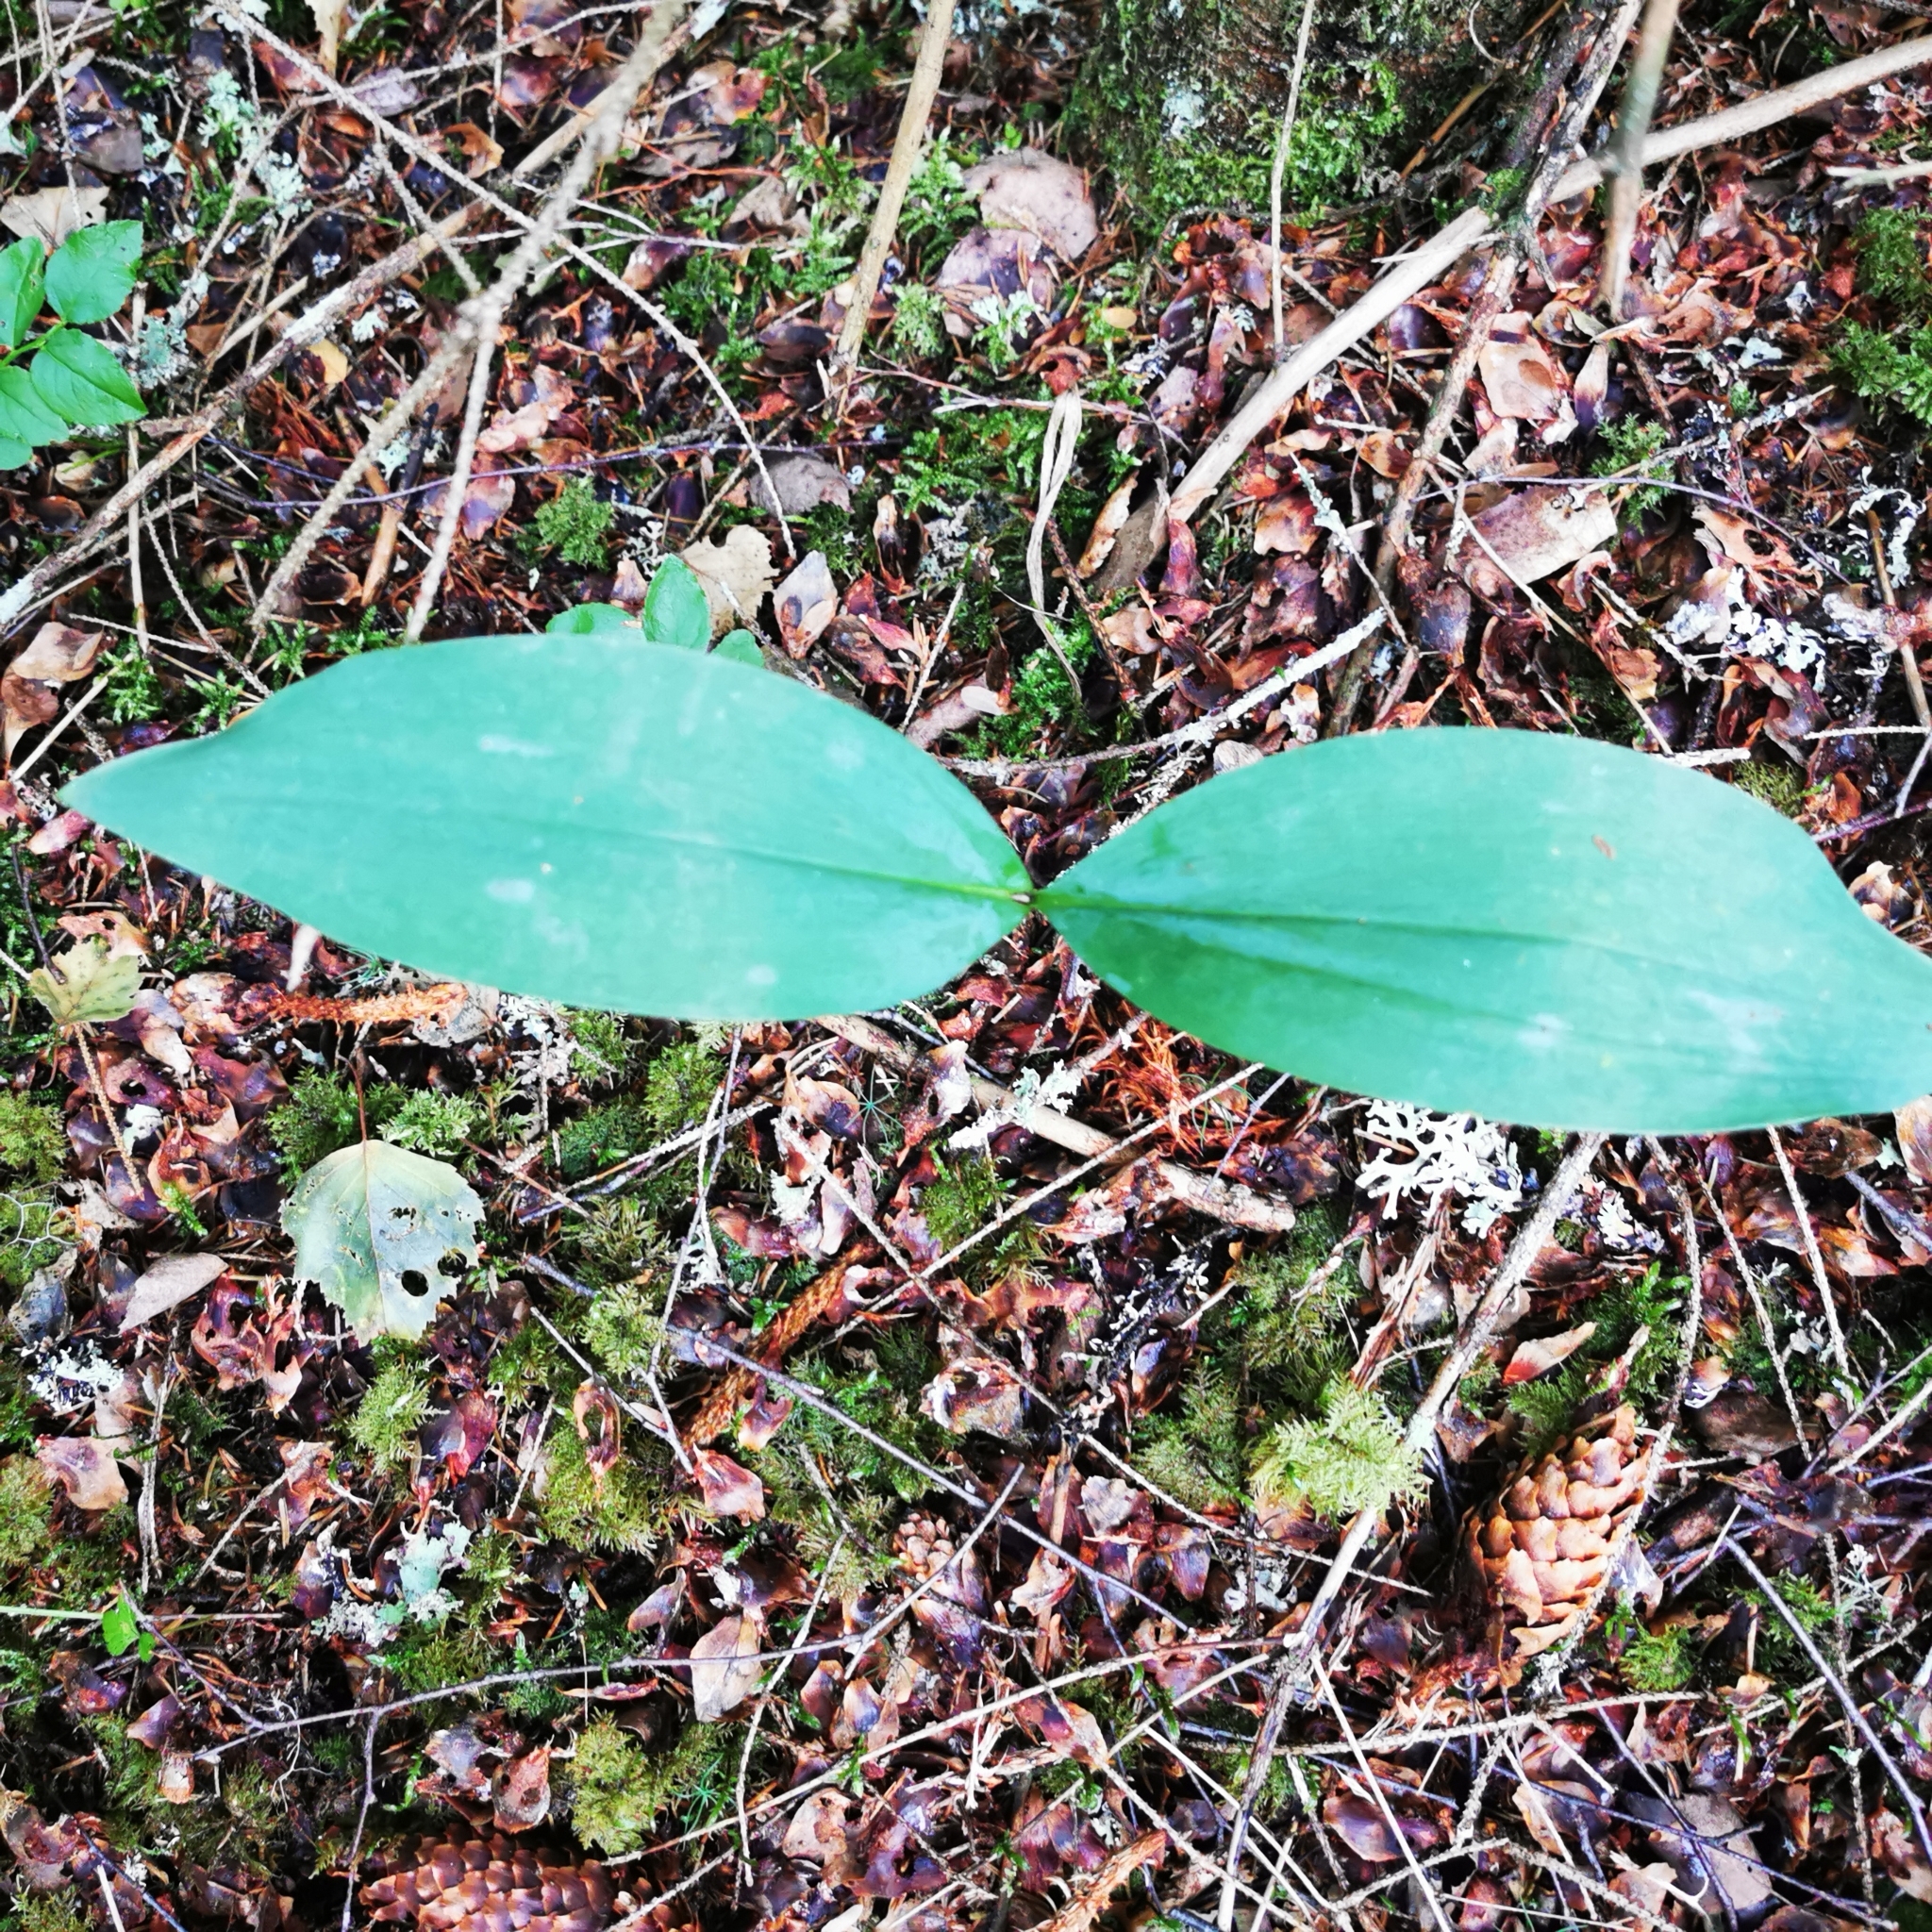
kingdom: Plantae
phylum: Tracheophyta
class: Liliopsida
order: Asparagales
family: Asparagaceae
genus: Convallaria
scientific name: Convallaria majalis
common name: Lily-of-the-valley
